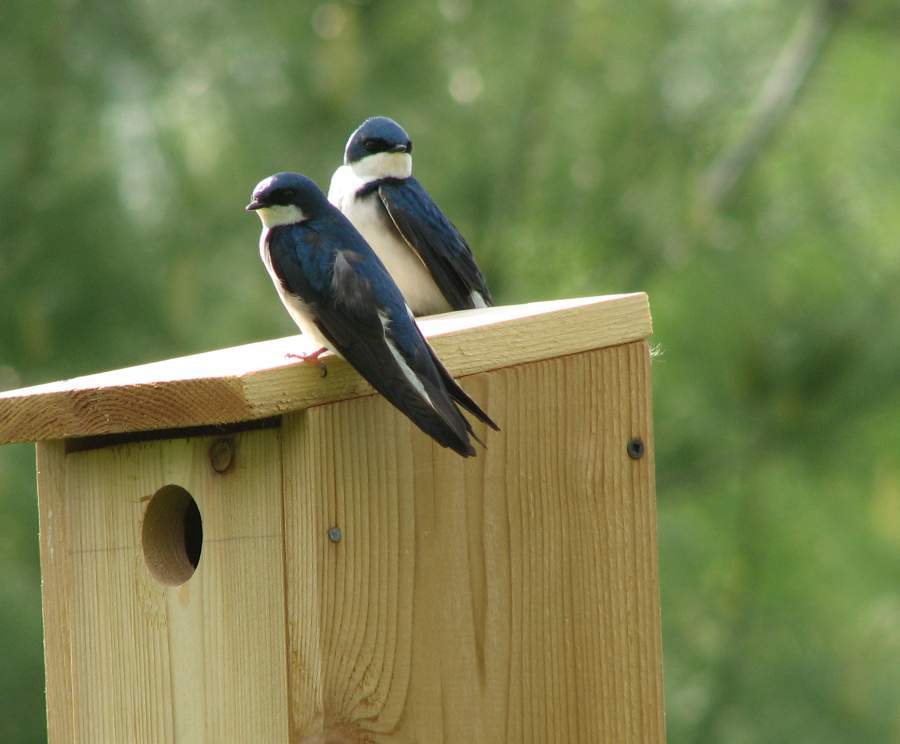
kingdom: Animalia
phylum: Chordata
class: Aves
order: Passeriformes
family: Hirundinidae
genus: Tachycineta
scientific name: Tachycineta bicolor
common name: Tree swallow
